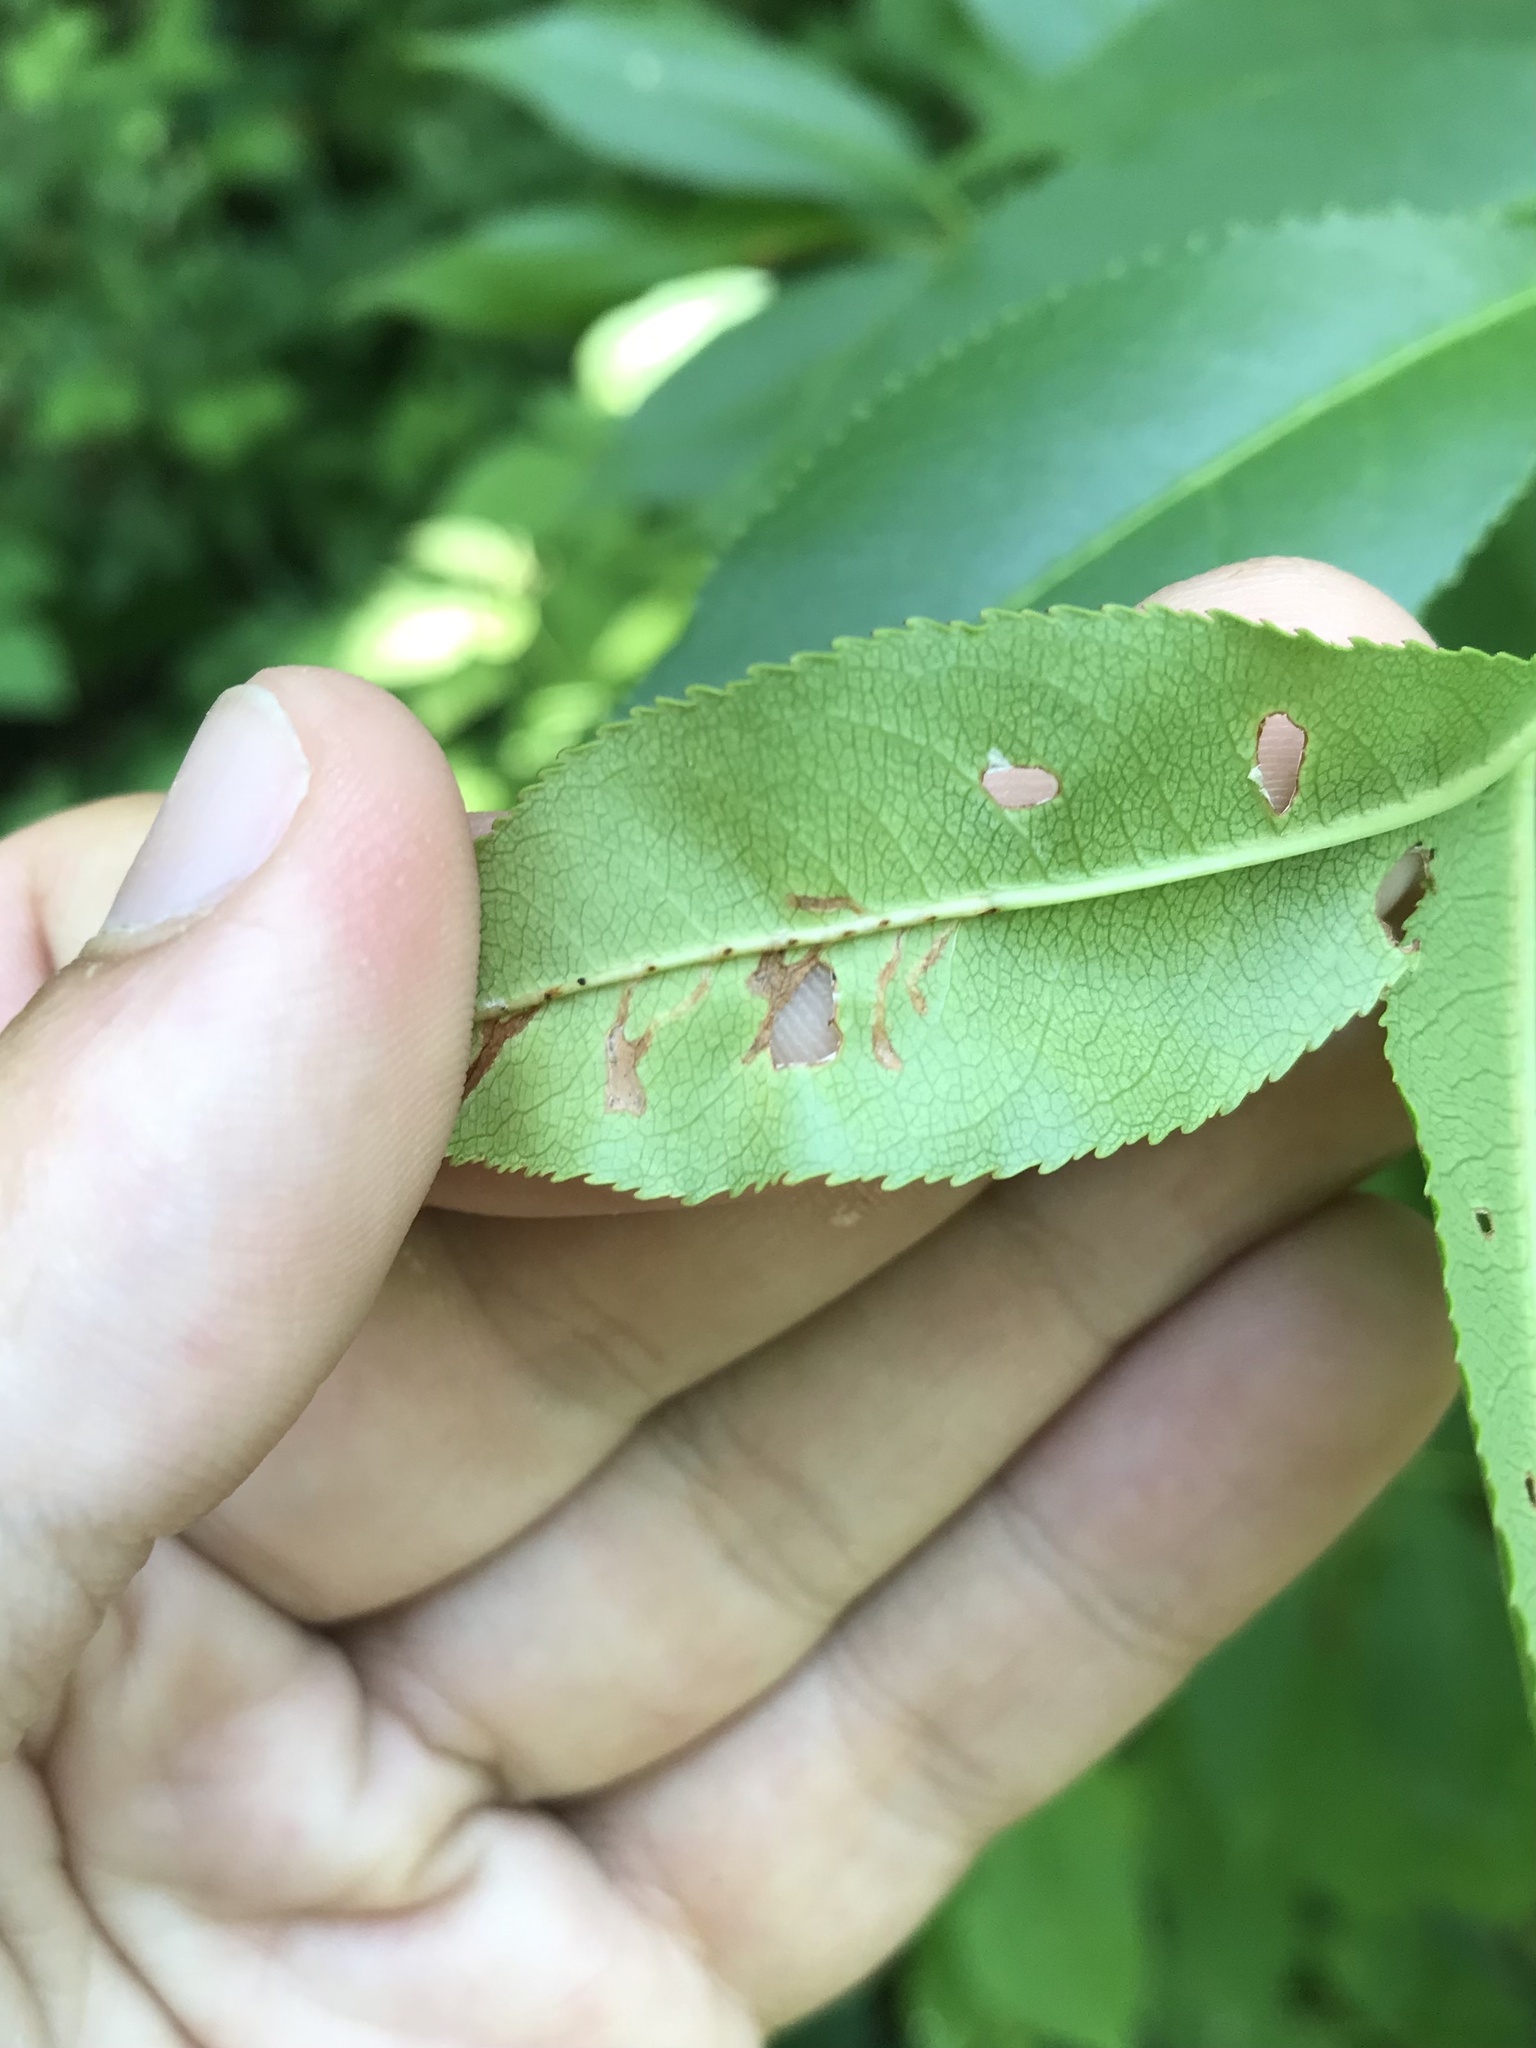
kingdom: Animalia
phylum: Arthropoda
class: Insecta
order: Coleoptera
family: Curculionidae
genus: Orchestes
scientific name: Orchestes pallicornis
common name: Apple-flea weevil
